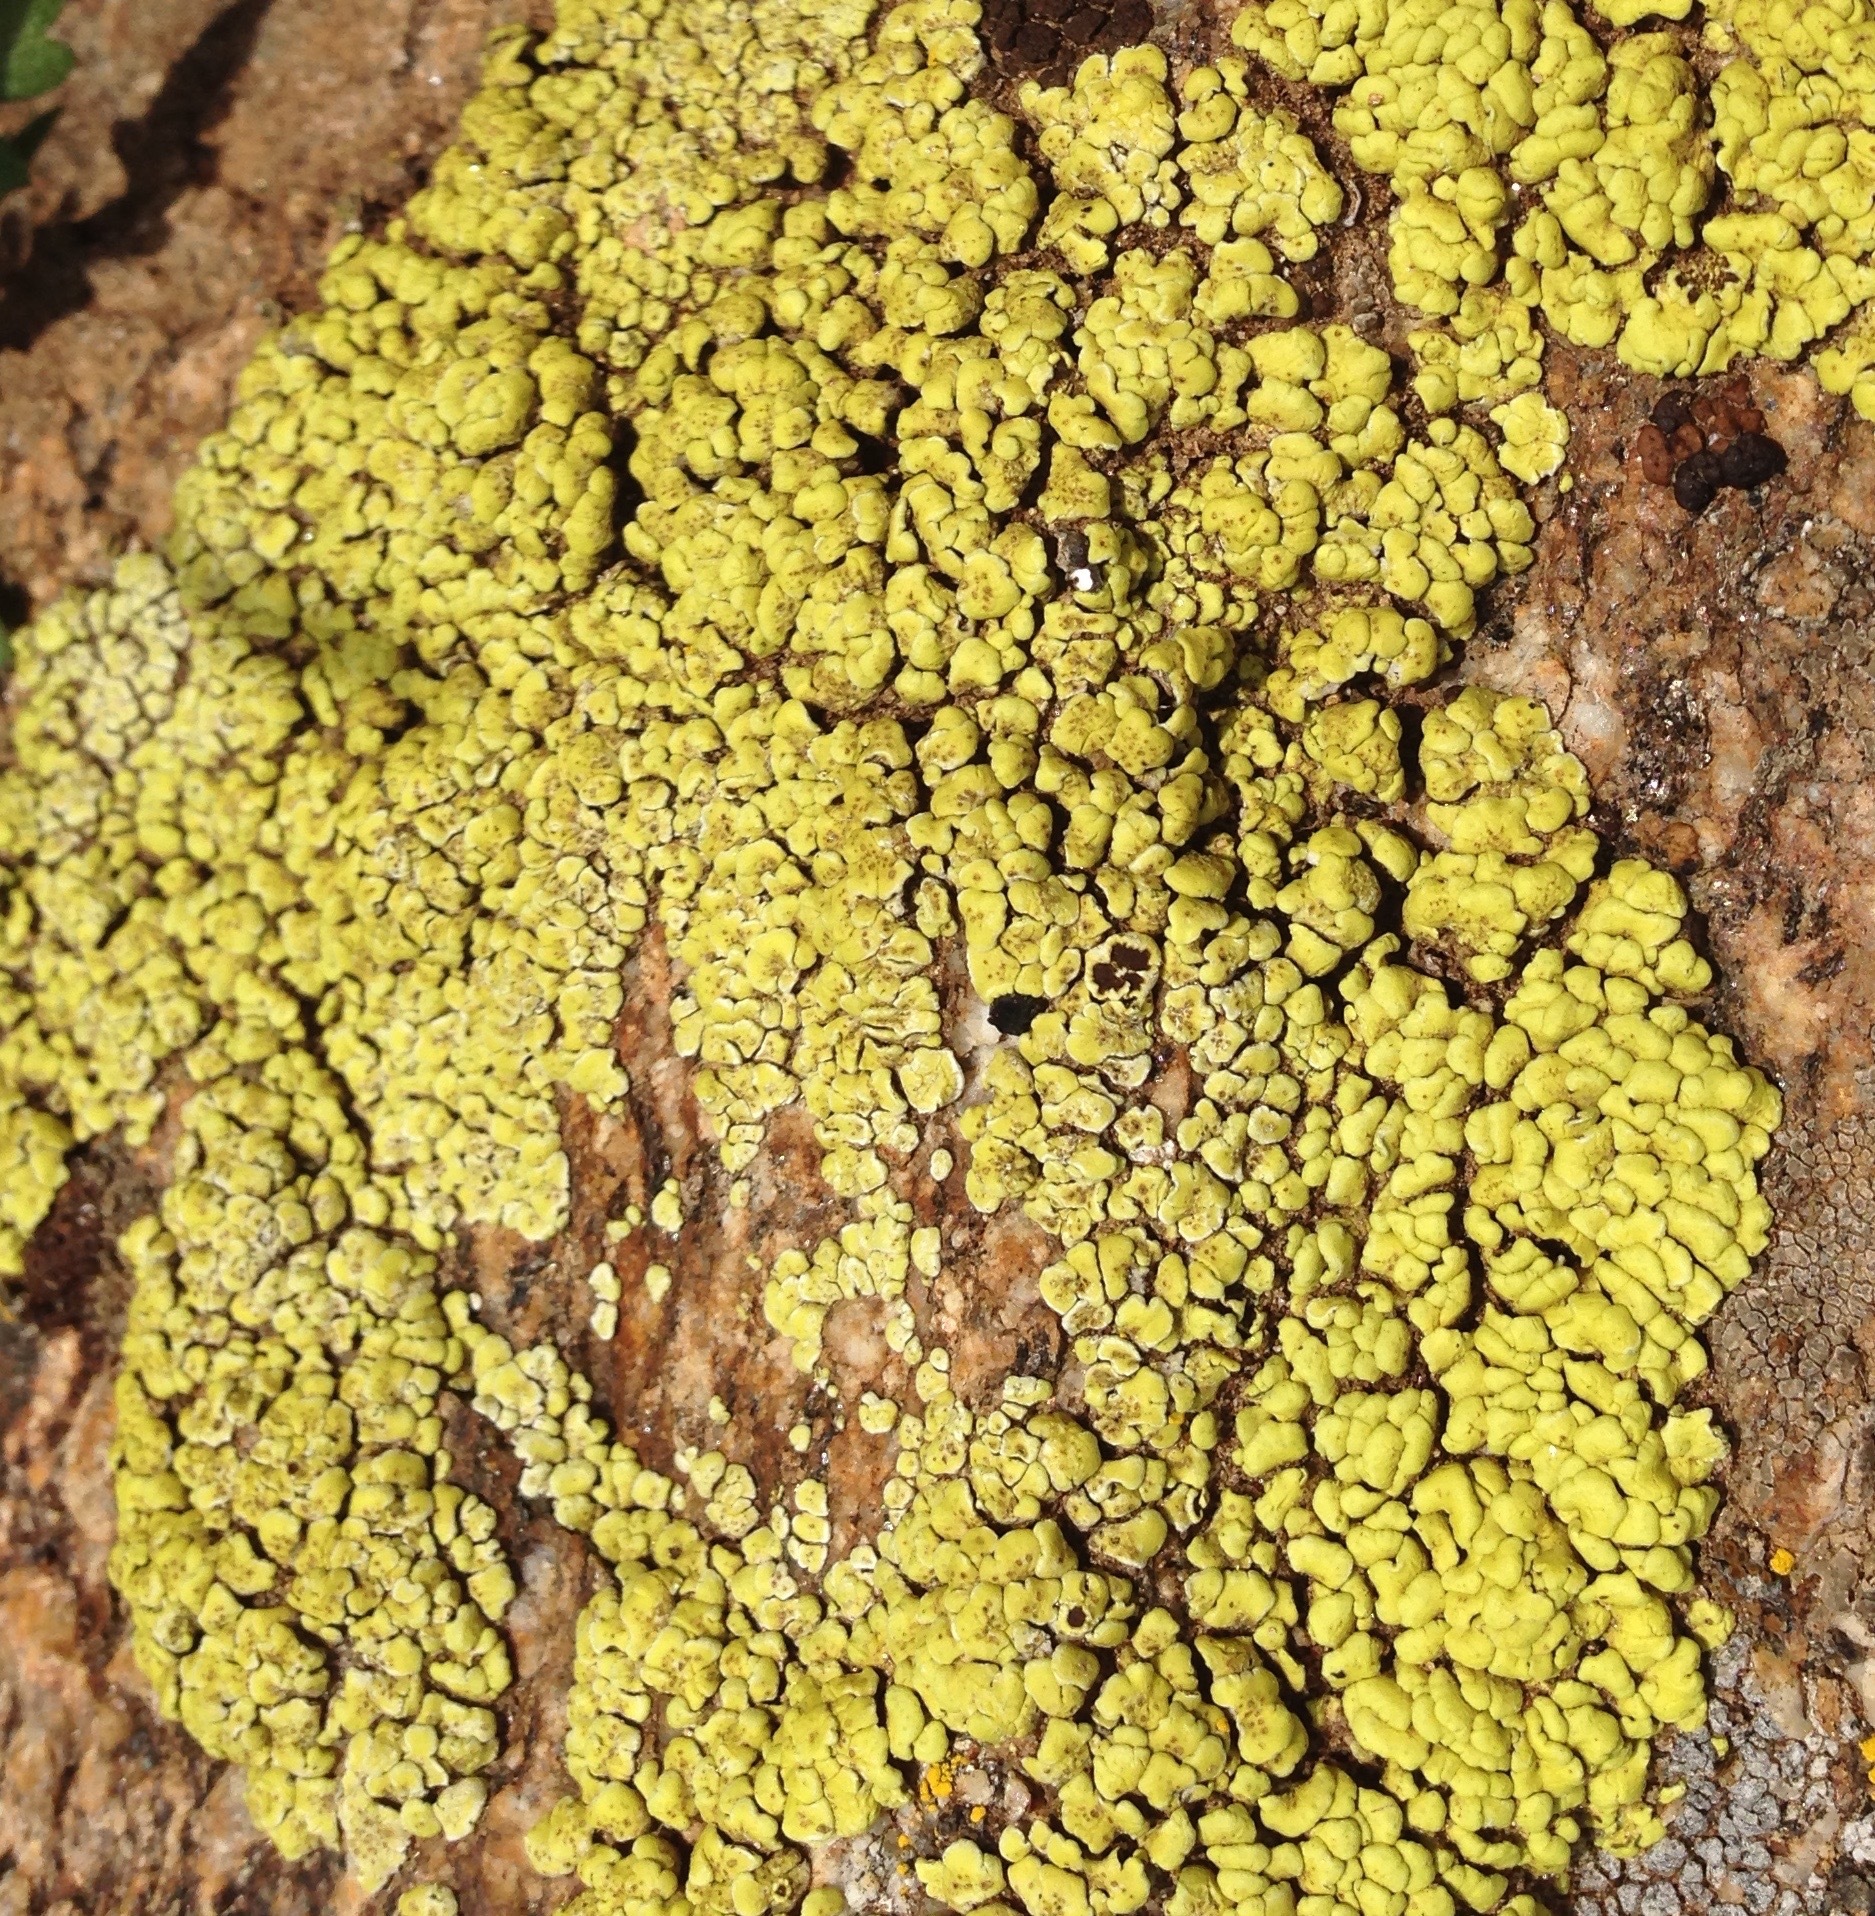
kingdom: Fungi
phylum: Ascomycota
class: Lecanoromycetes
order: Acarosporales
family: Acarosporaceae
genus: Acarospora
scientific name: Acarospora socialis
